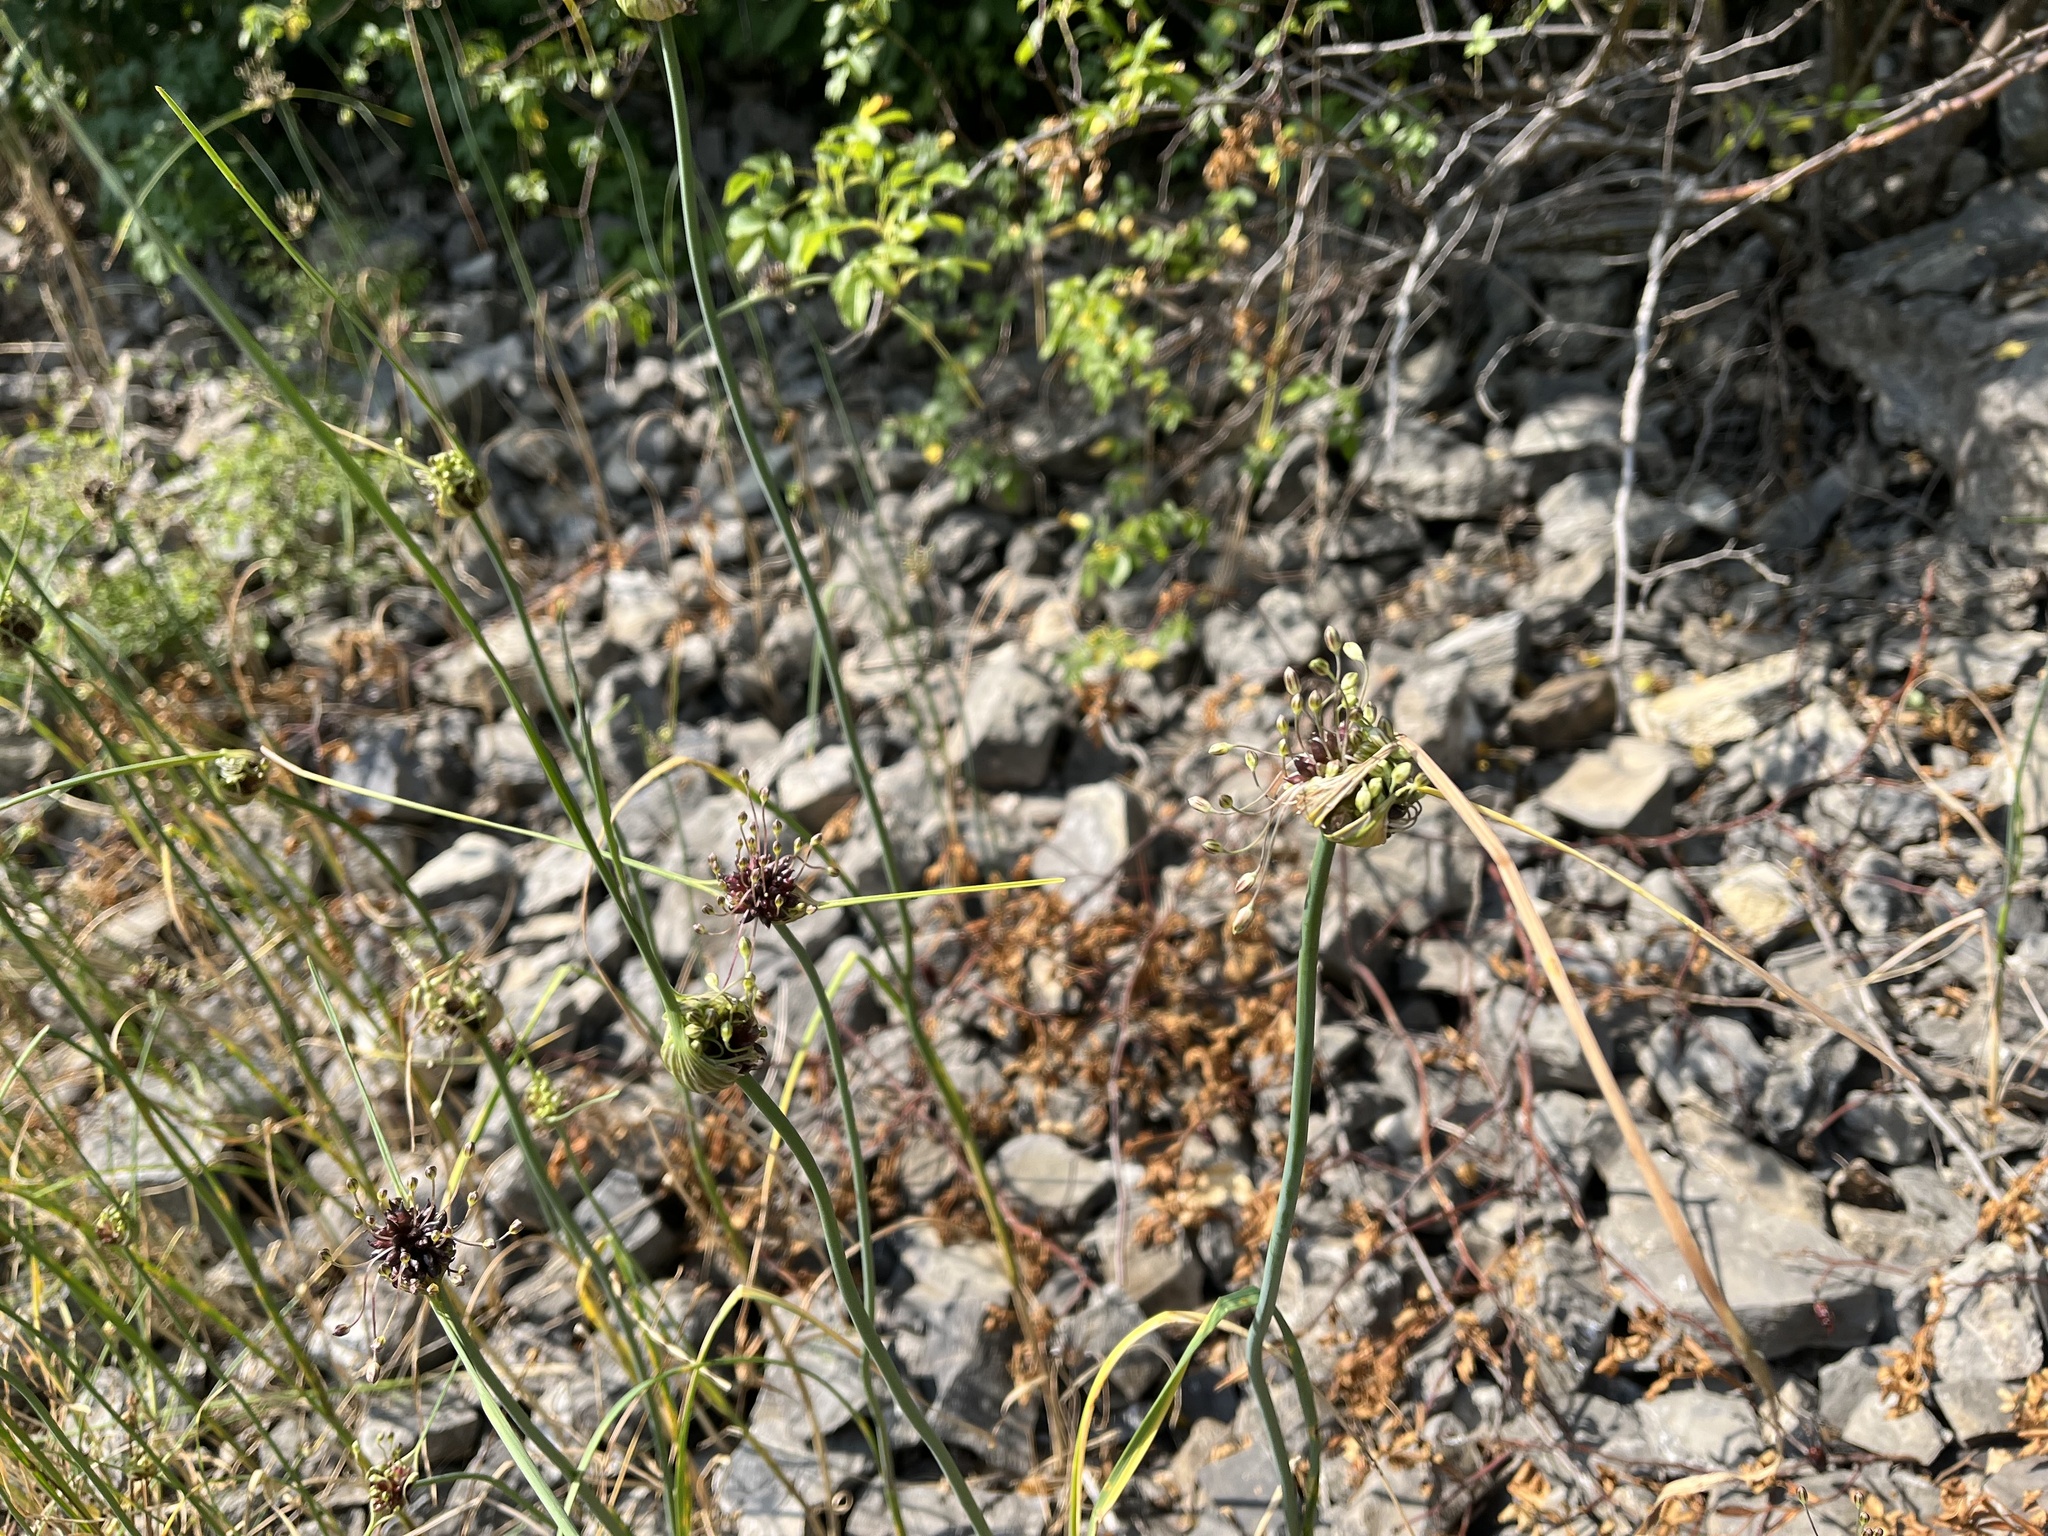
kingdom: Plantae
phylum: Tracheophyta
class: Liliopsida
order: Asparagales
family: Amaryllidaceae
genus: Allium
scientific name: Allium oleraceum
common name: Field garlic
